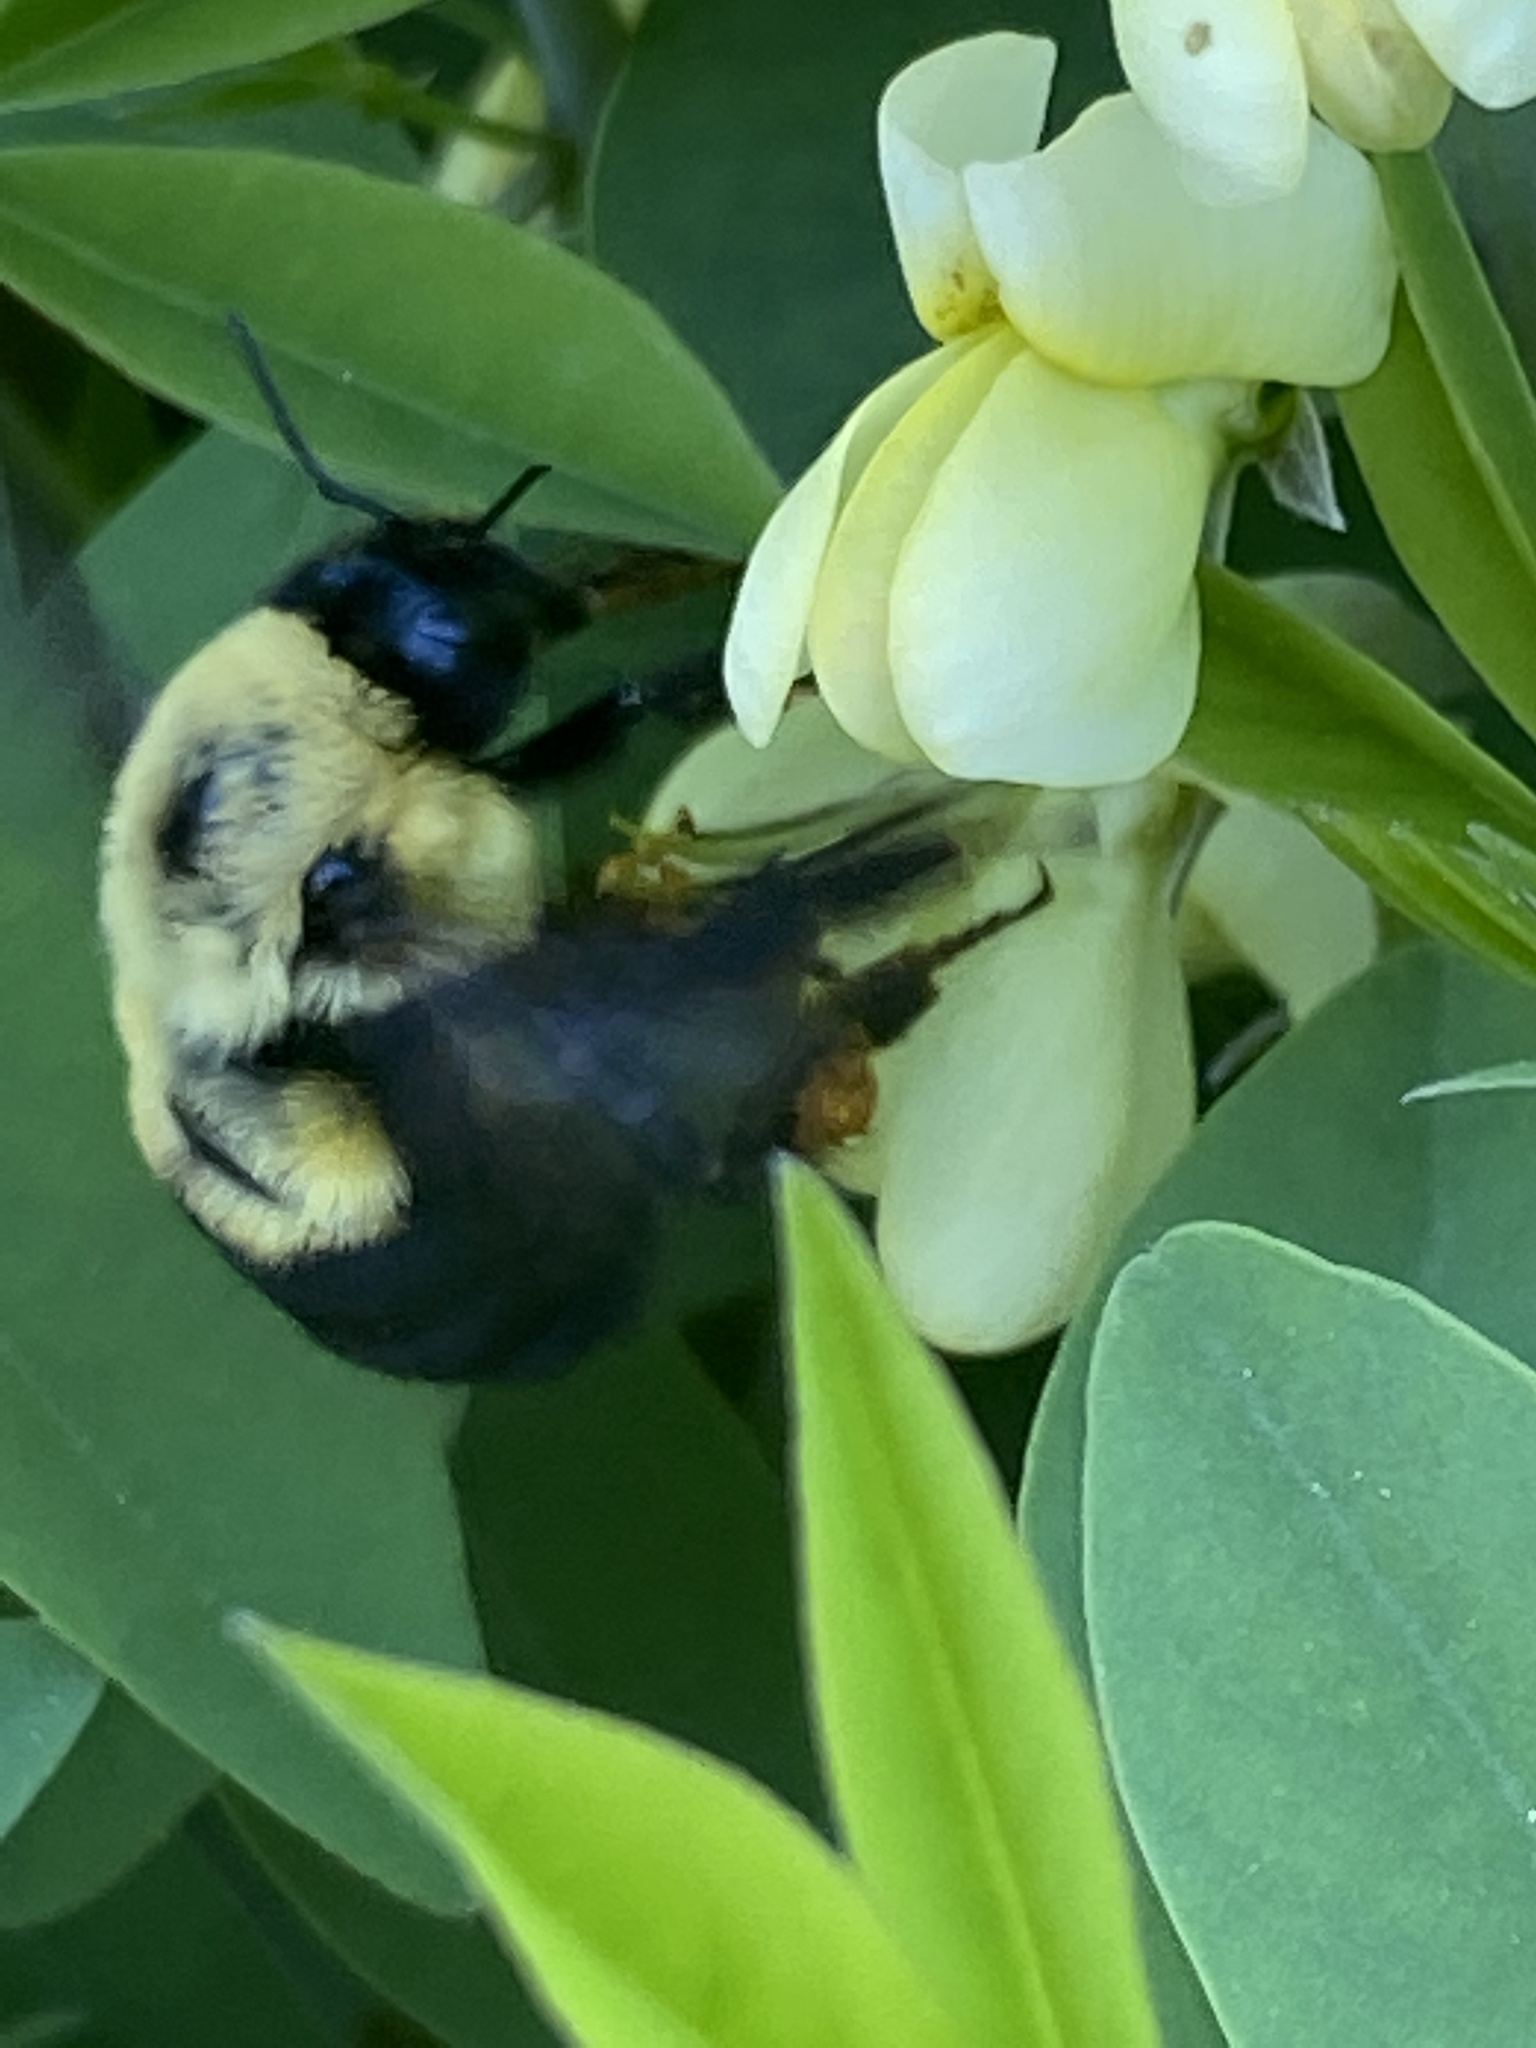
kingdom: Animalia
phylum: Arthropoda
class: Insecta
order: Hymenoptera
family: Apidae
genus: Bombus
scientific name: Bombus griseocollis
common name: Brown-belted bumble bee
